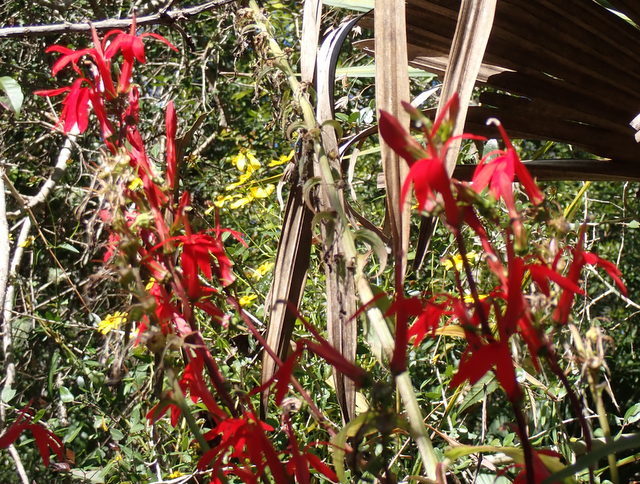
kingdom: Plantae
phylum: Tracheophyta
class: Magnoliopsida
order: Asterales
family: Campanulaceae
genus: Lobelia
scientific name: Lobelia cardinalis
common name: Cardinal flower
